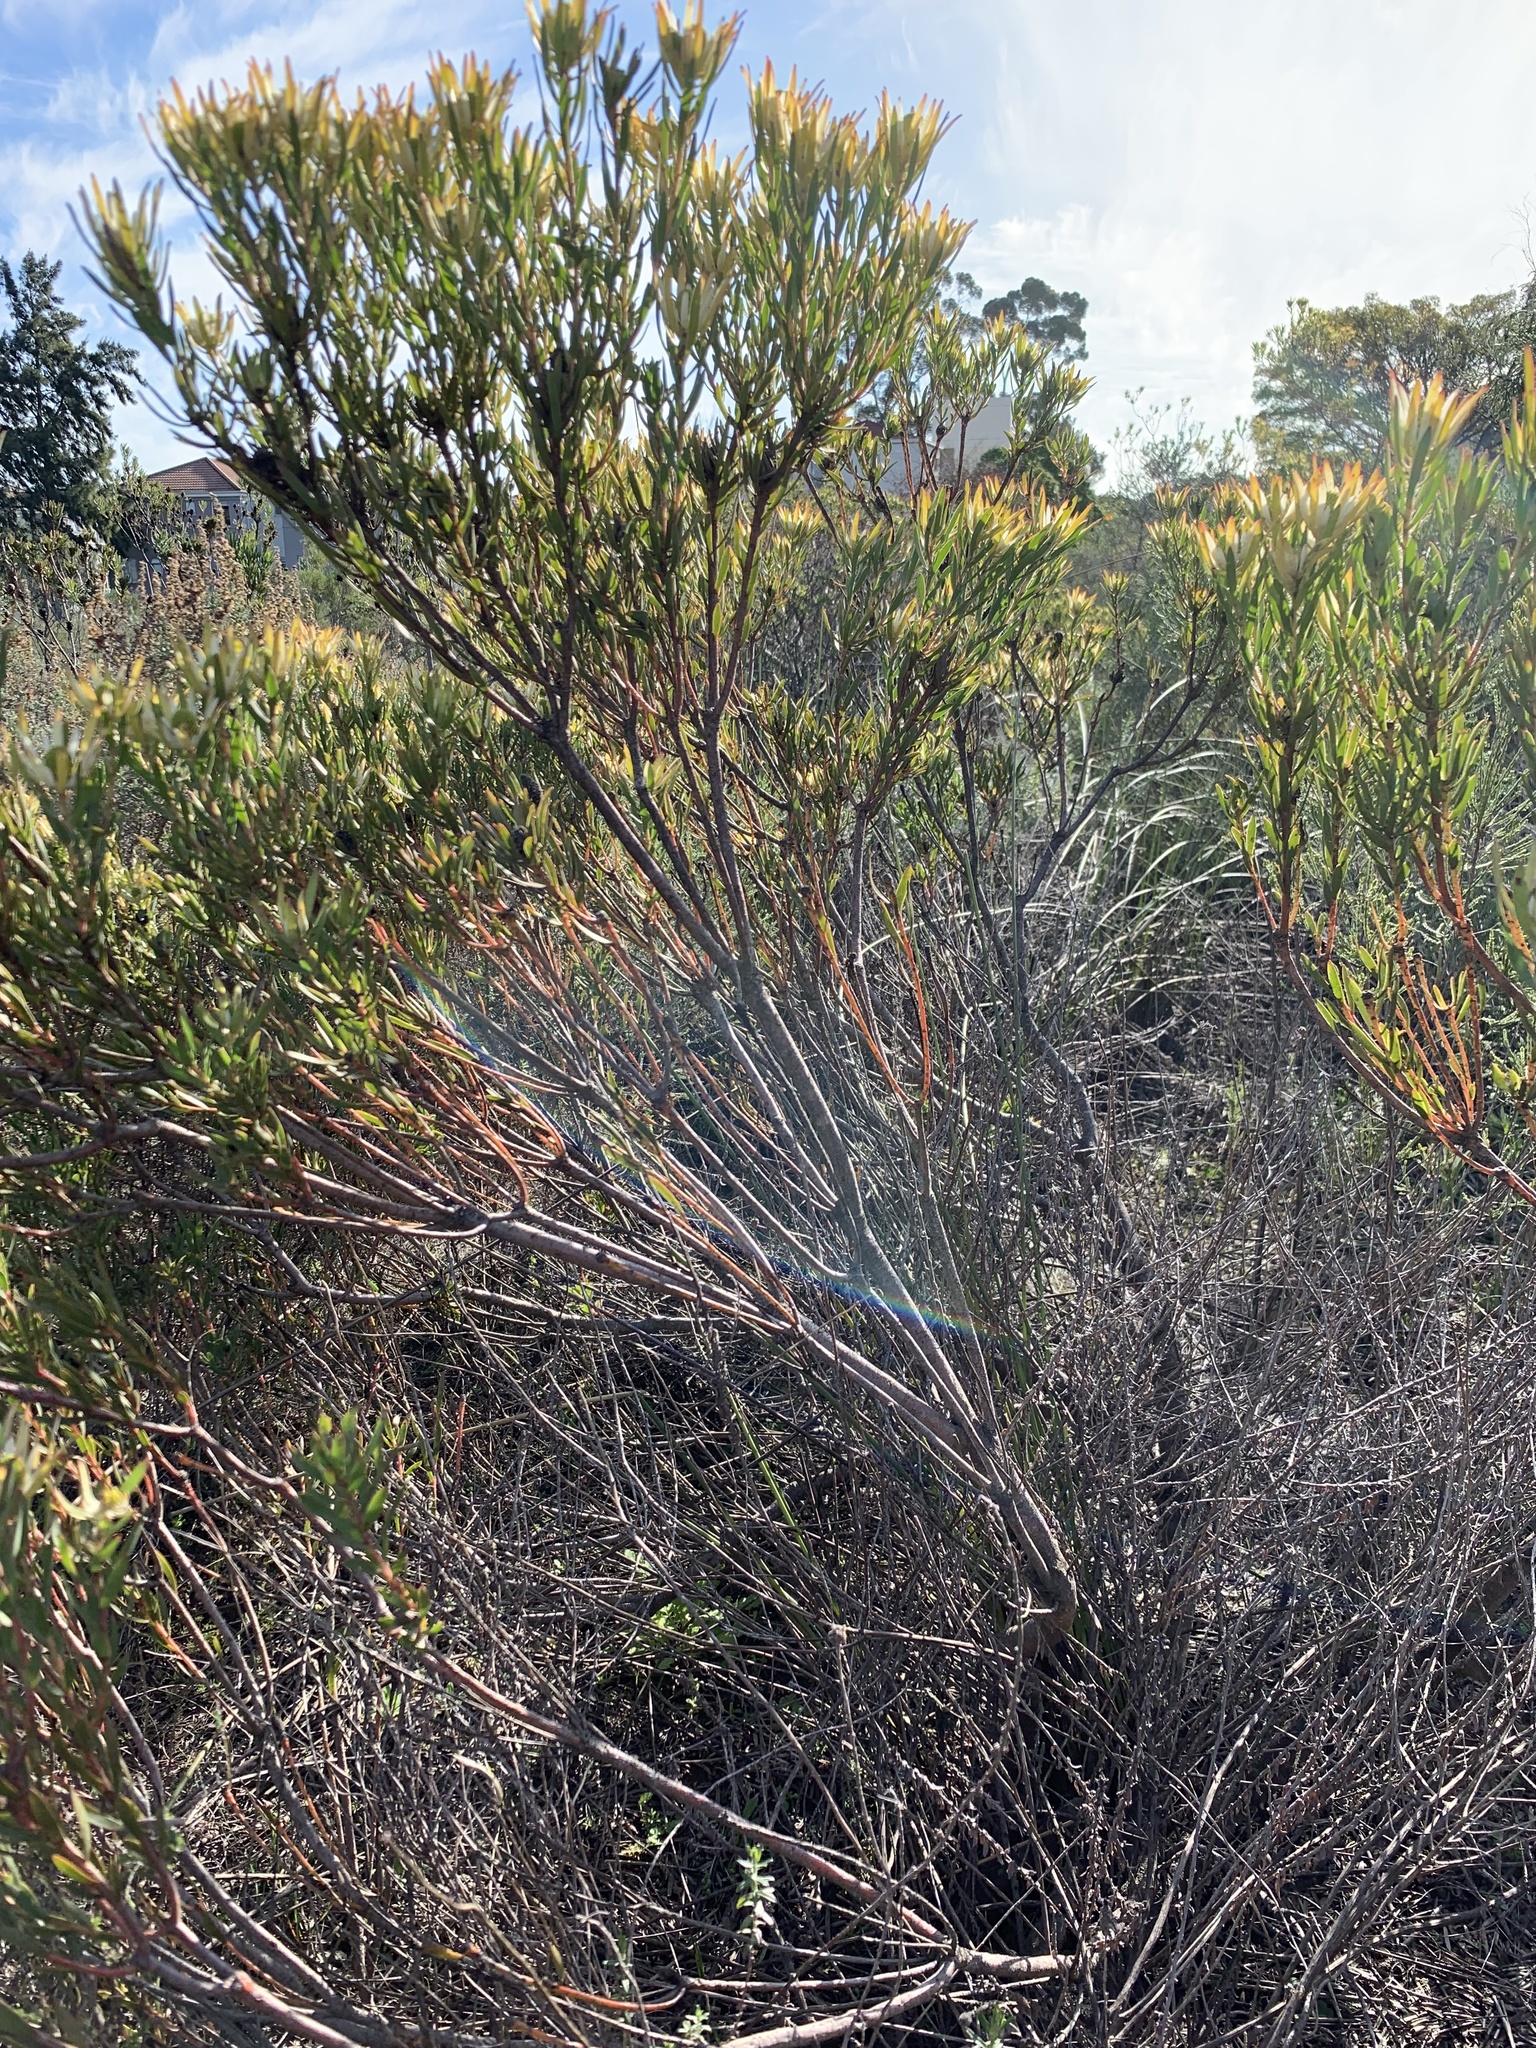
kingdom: Plantae
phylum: Tracheophyta
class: Magnoliopsida
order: Proteales
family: Proteaceae
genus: Leucadendron
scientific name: Leucadendron lanigerum
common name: Shale conebush
